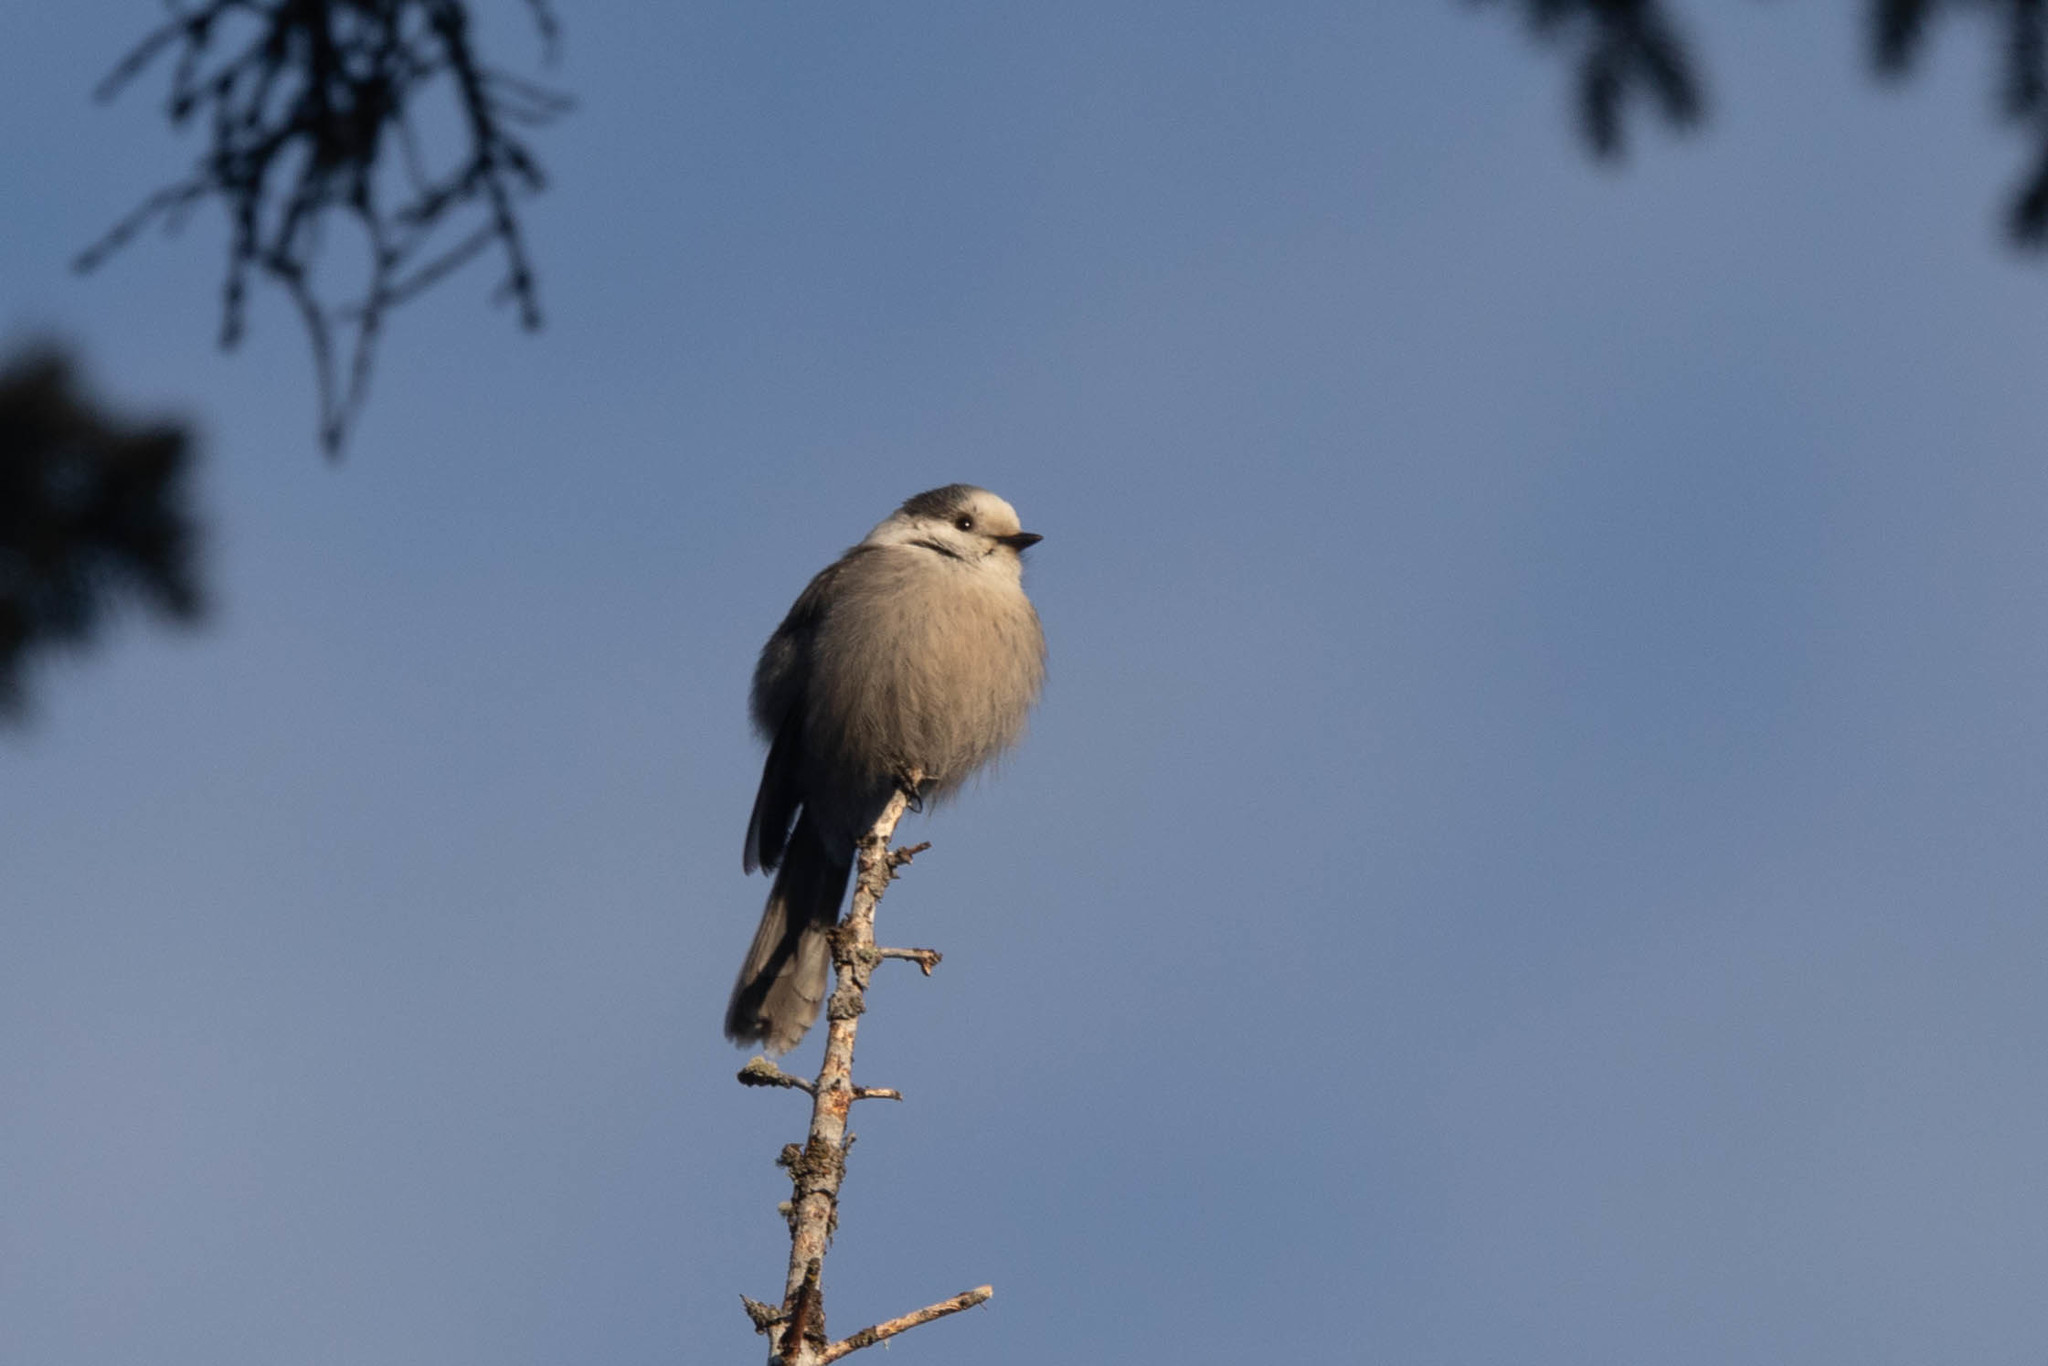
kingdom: Animalia
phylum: Chordata
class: Aves
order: Passeriformes
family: Corvidae
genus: Perisoreus
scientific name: Perisoreus canadensis
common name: Gray jay
